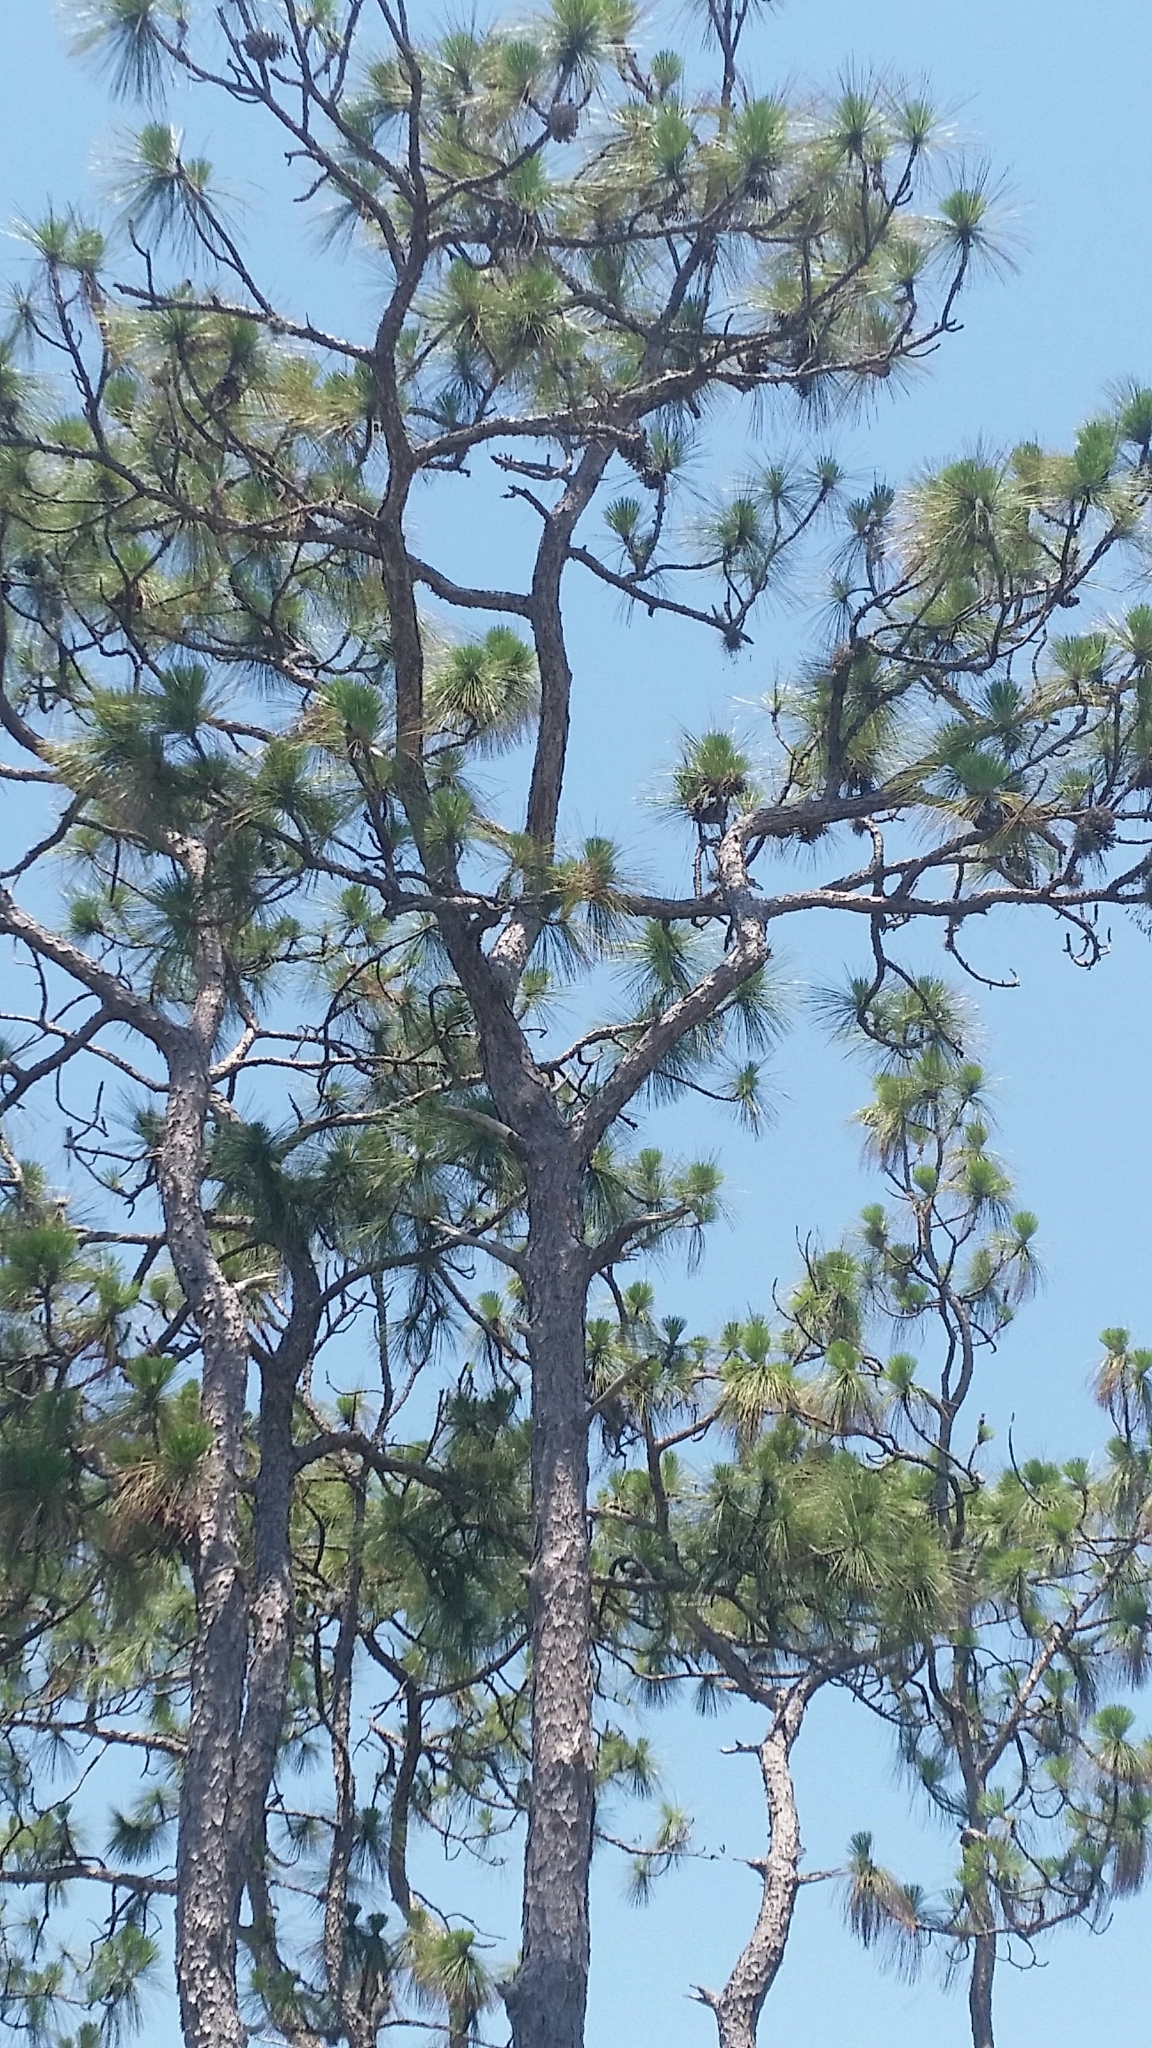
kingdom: Plantae
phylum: Tracheophyta
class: Pinopsida
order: Pinales
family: Pinaceae
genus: Pinus
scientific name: Pinus palustris
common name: Longleaf pine
